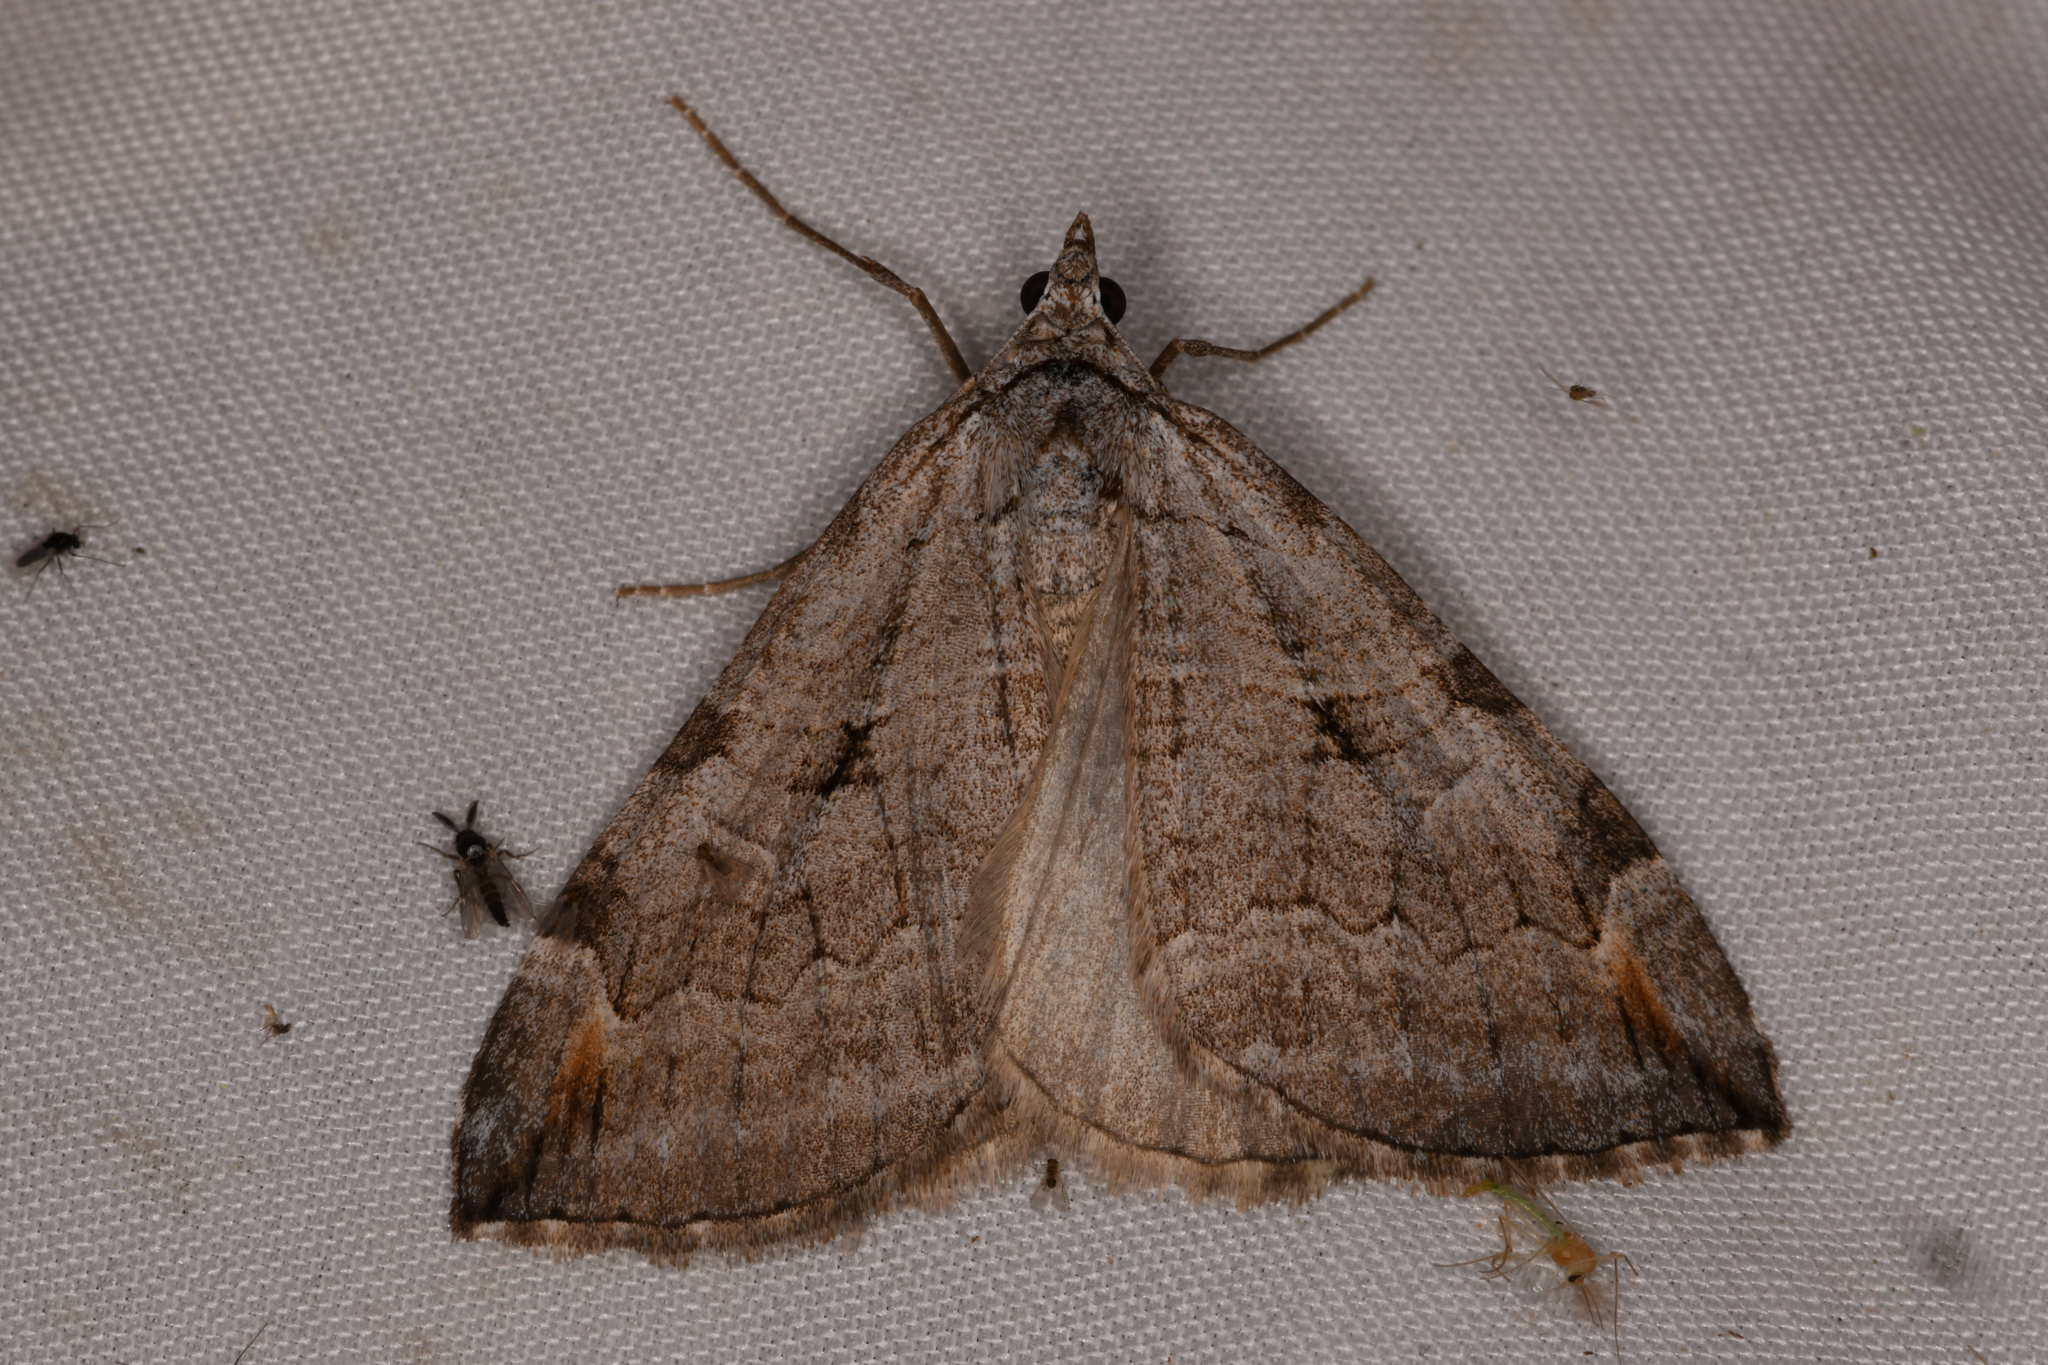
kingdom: Animalia
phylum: Arthropoda
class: Insecta
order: Lepidoptera
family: Geometridae
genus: Aplocera
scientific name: Aplocera plagiata
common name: Treble-bar
